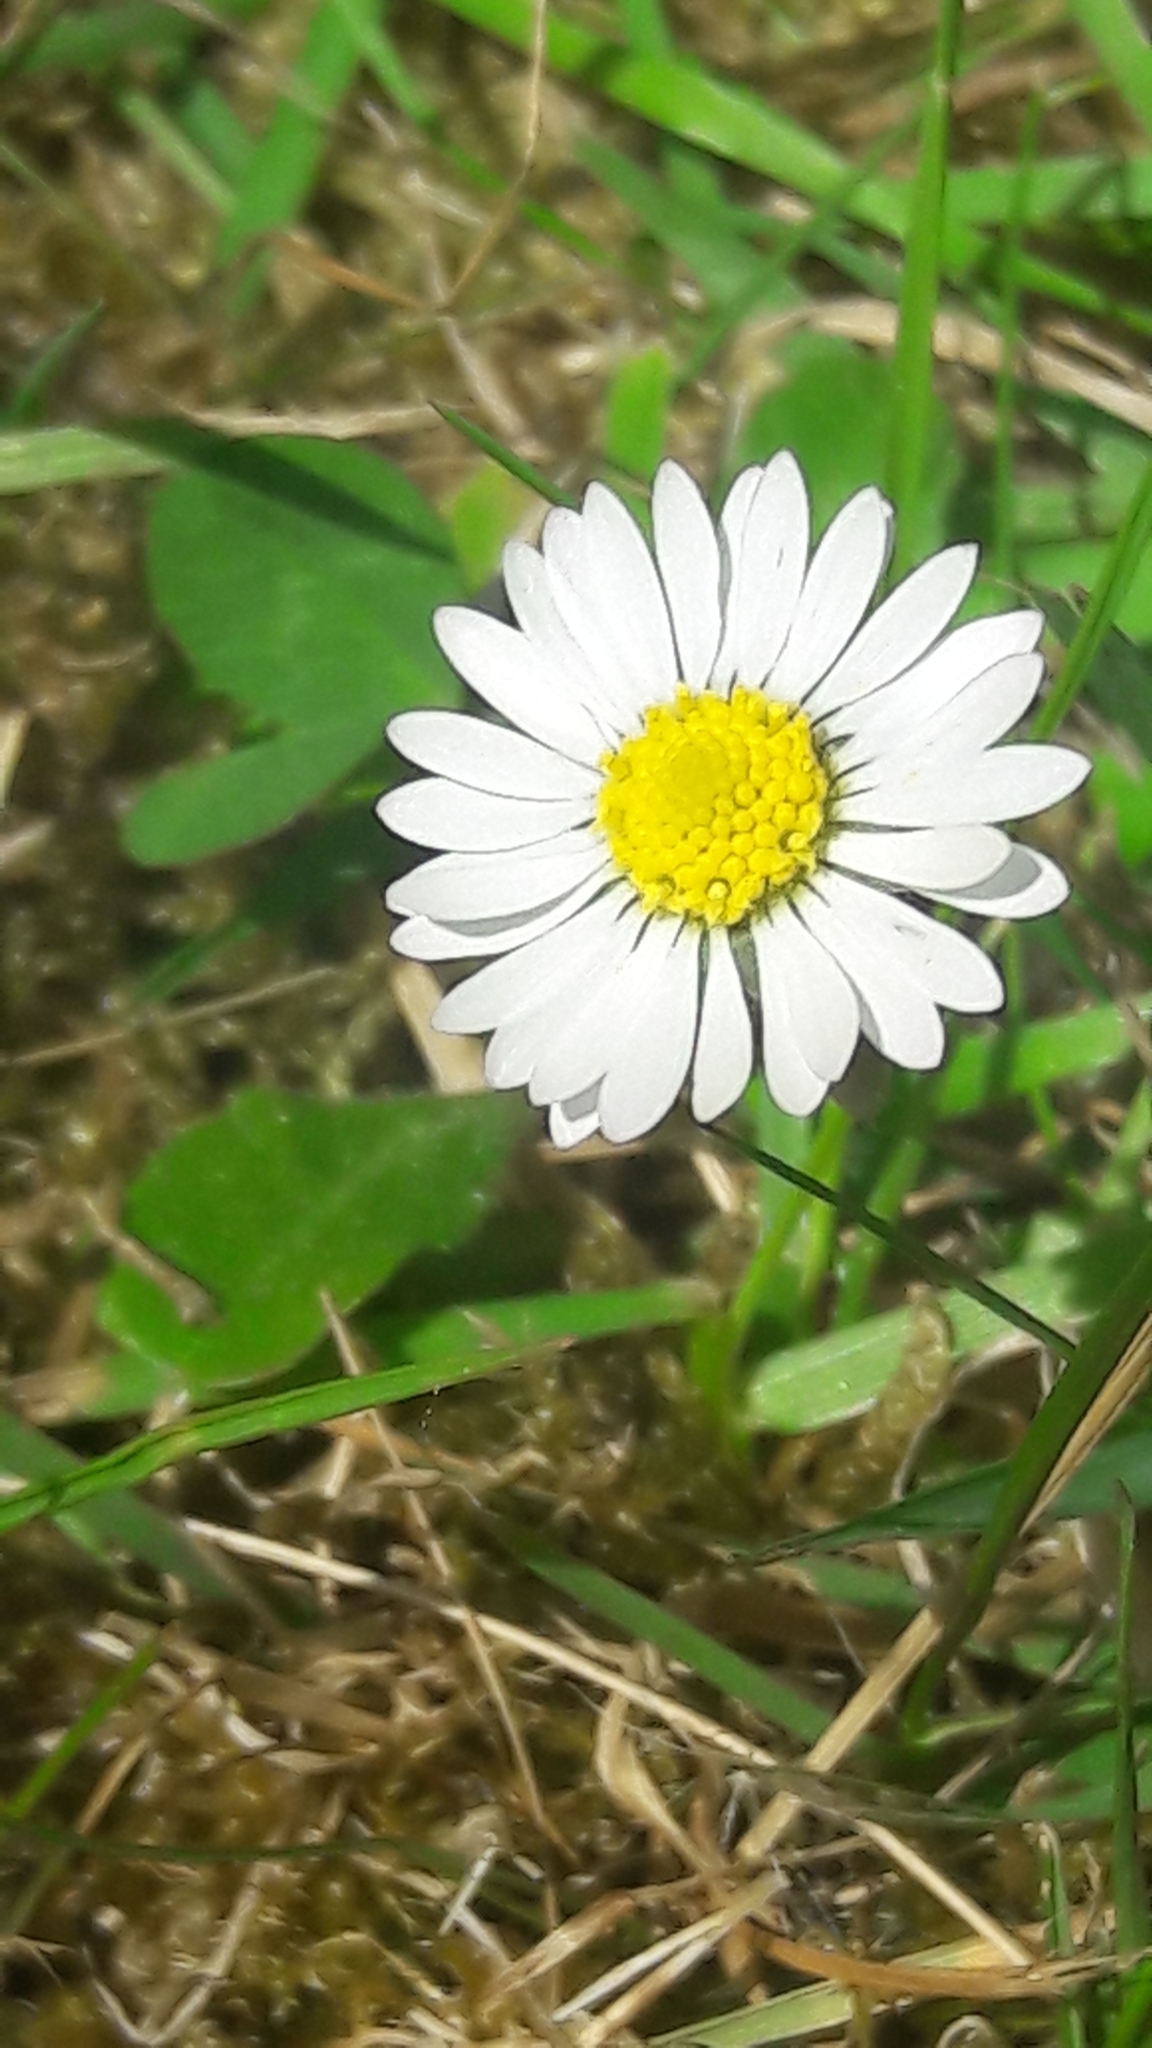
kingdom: Plantae
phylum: Tracheophyta
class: Magnoliopsida
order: Asterales
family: Asteraceae
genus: Bellis
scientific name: Bellis perennis
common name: Lawndaisy
